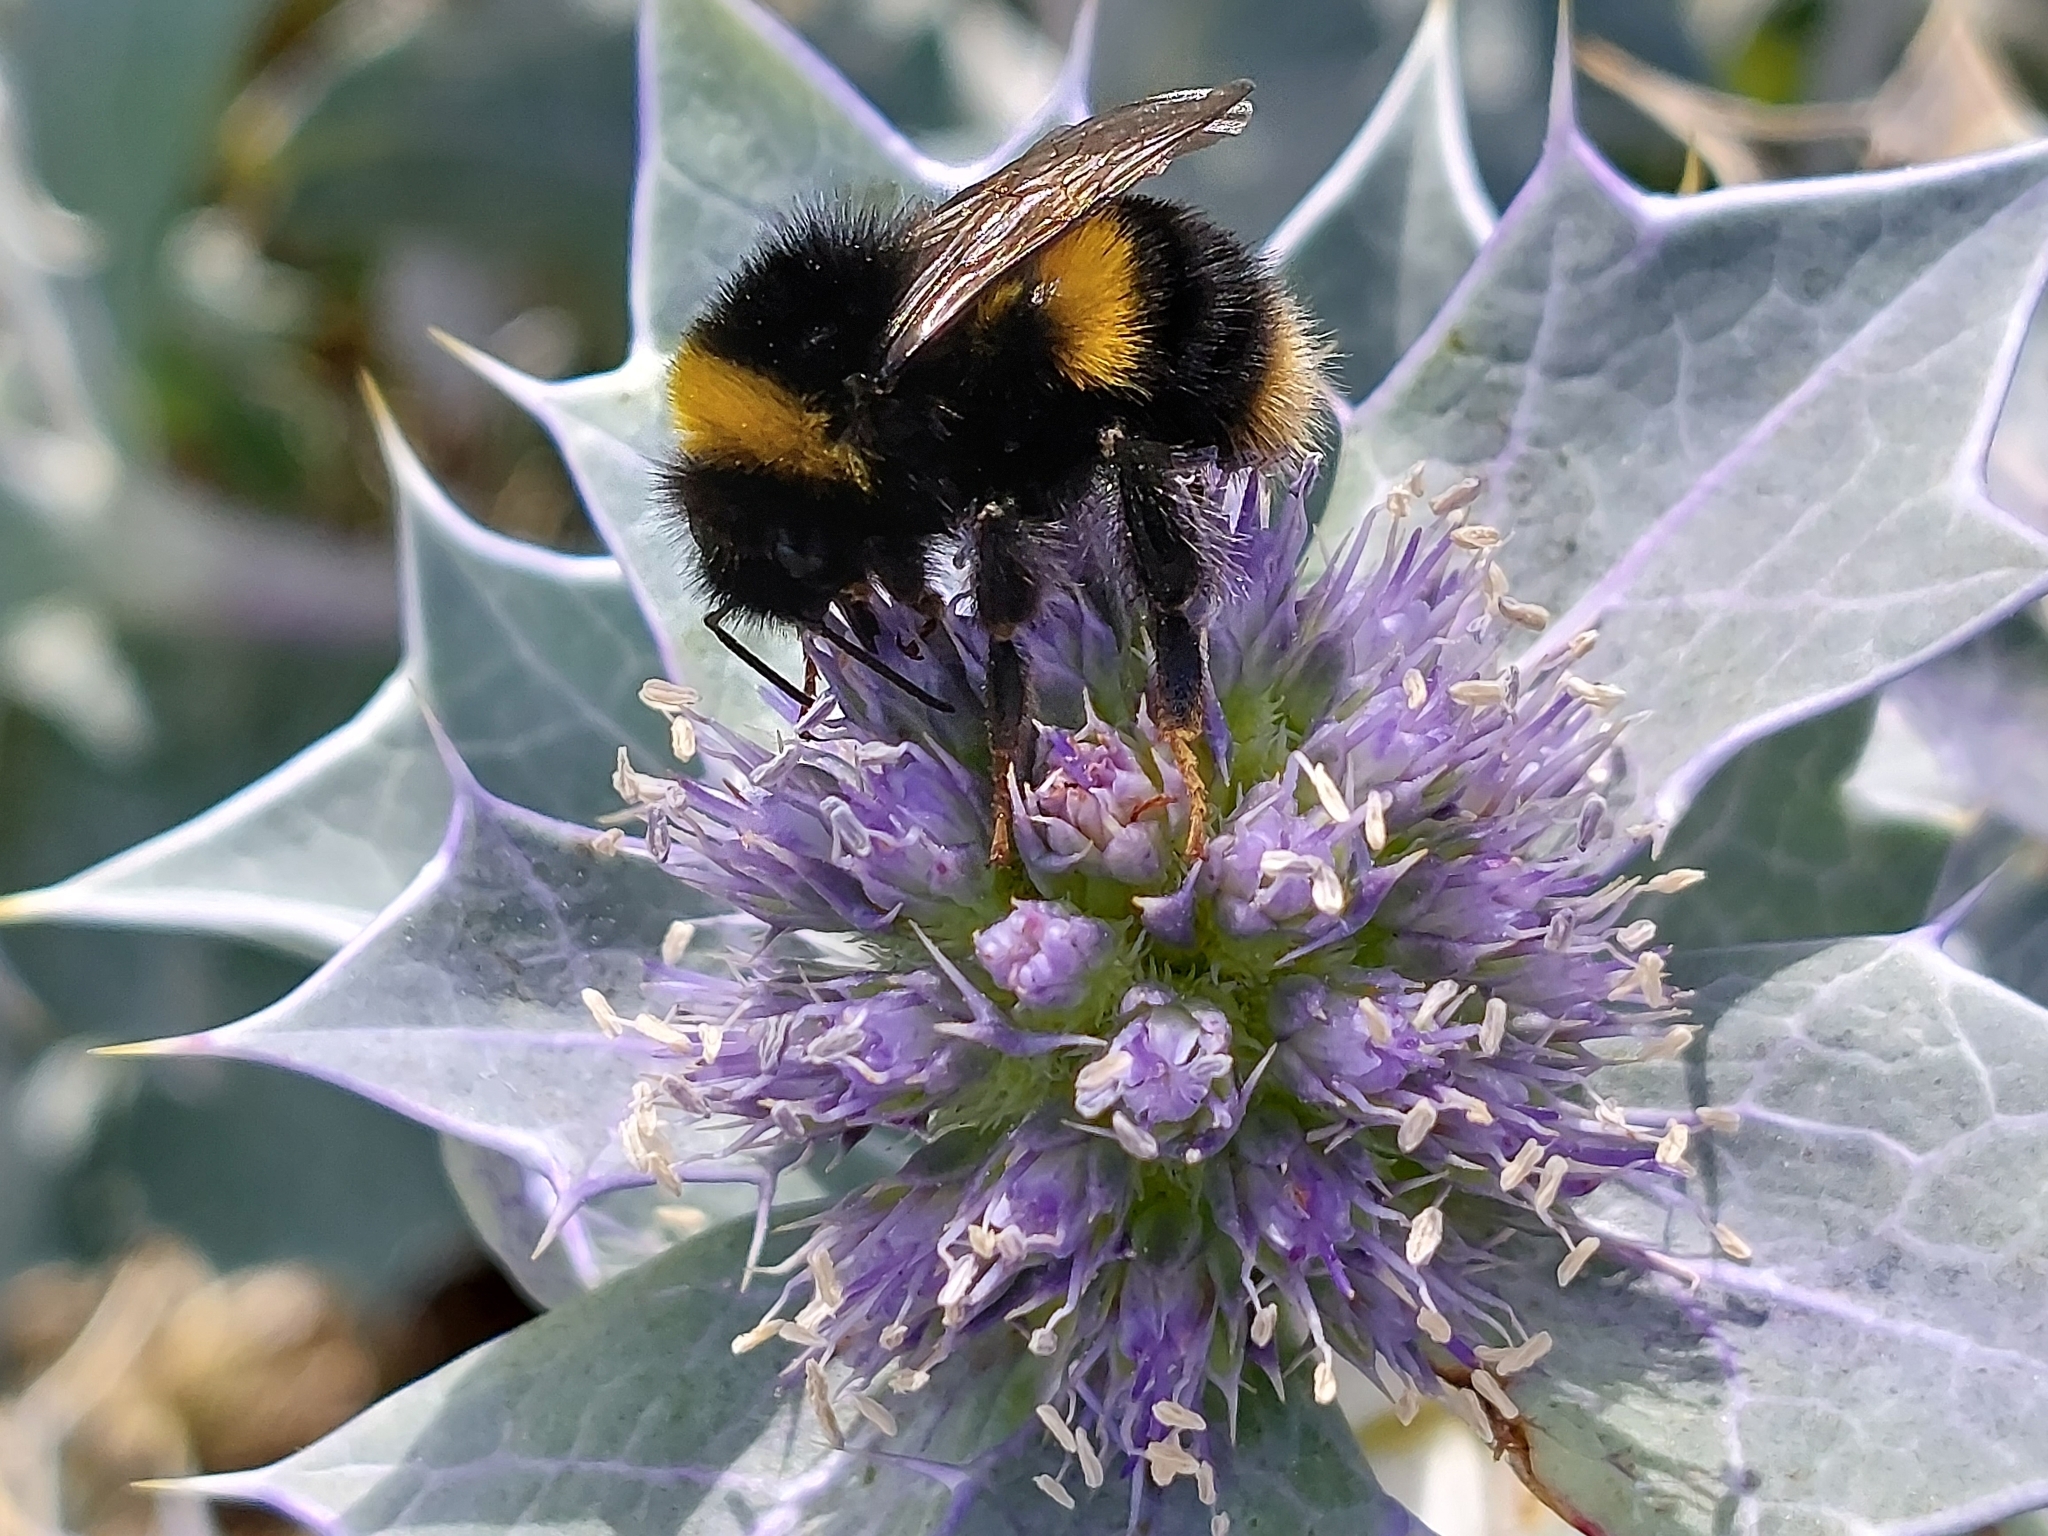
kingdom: Animalia
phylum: Arthropoda
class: Insecta
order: Hymenoptera
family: Apidae
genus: Bombus
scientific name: Bombus terrestris
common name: Buff-tailed bumblebee
